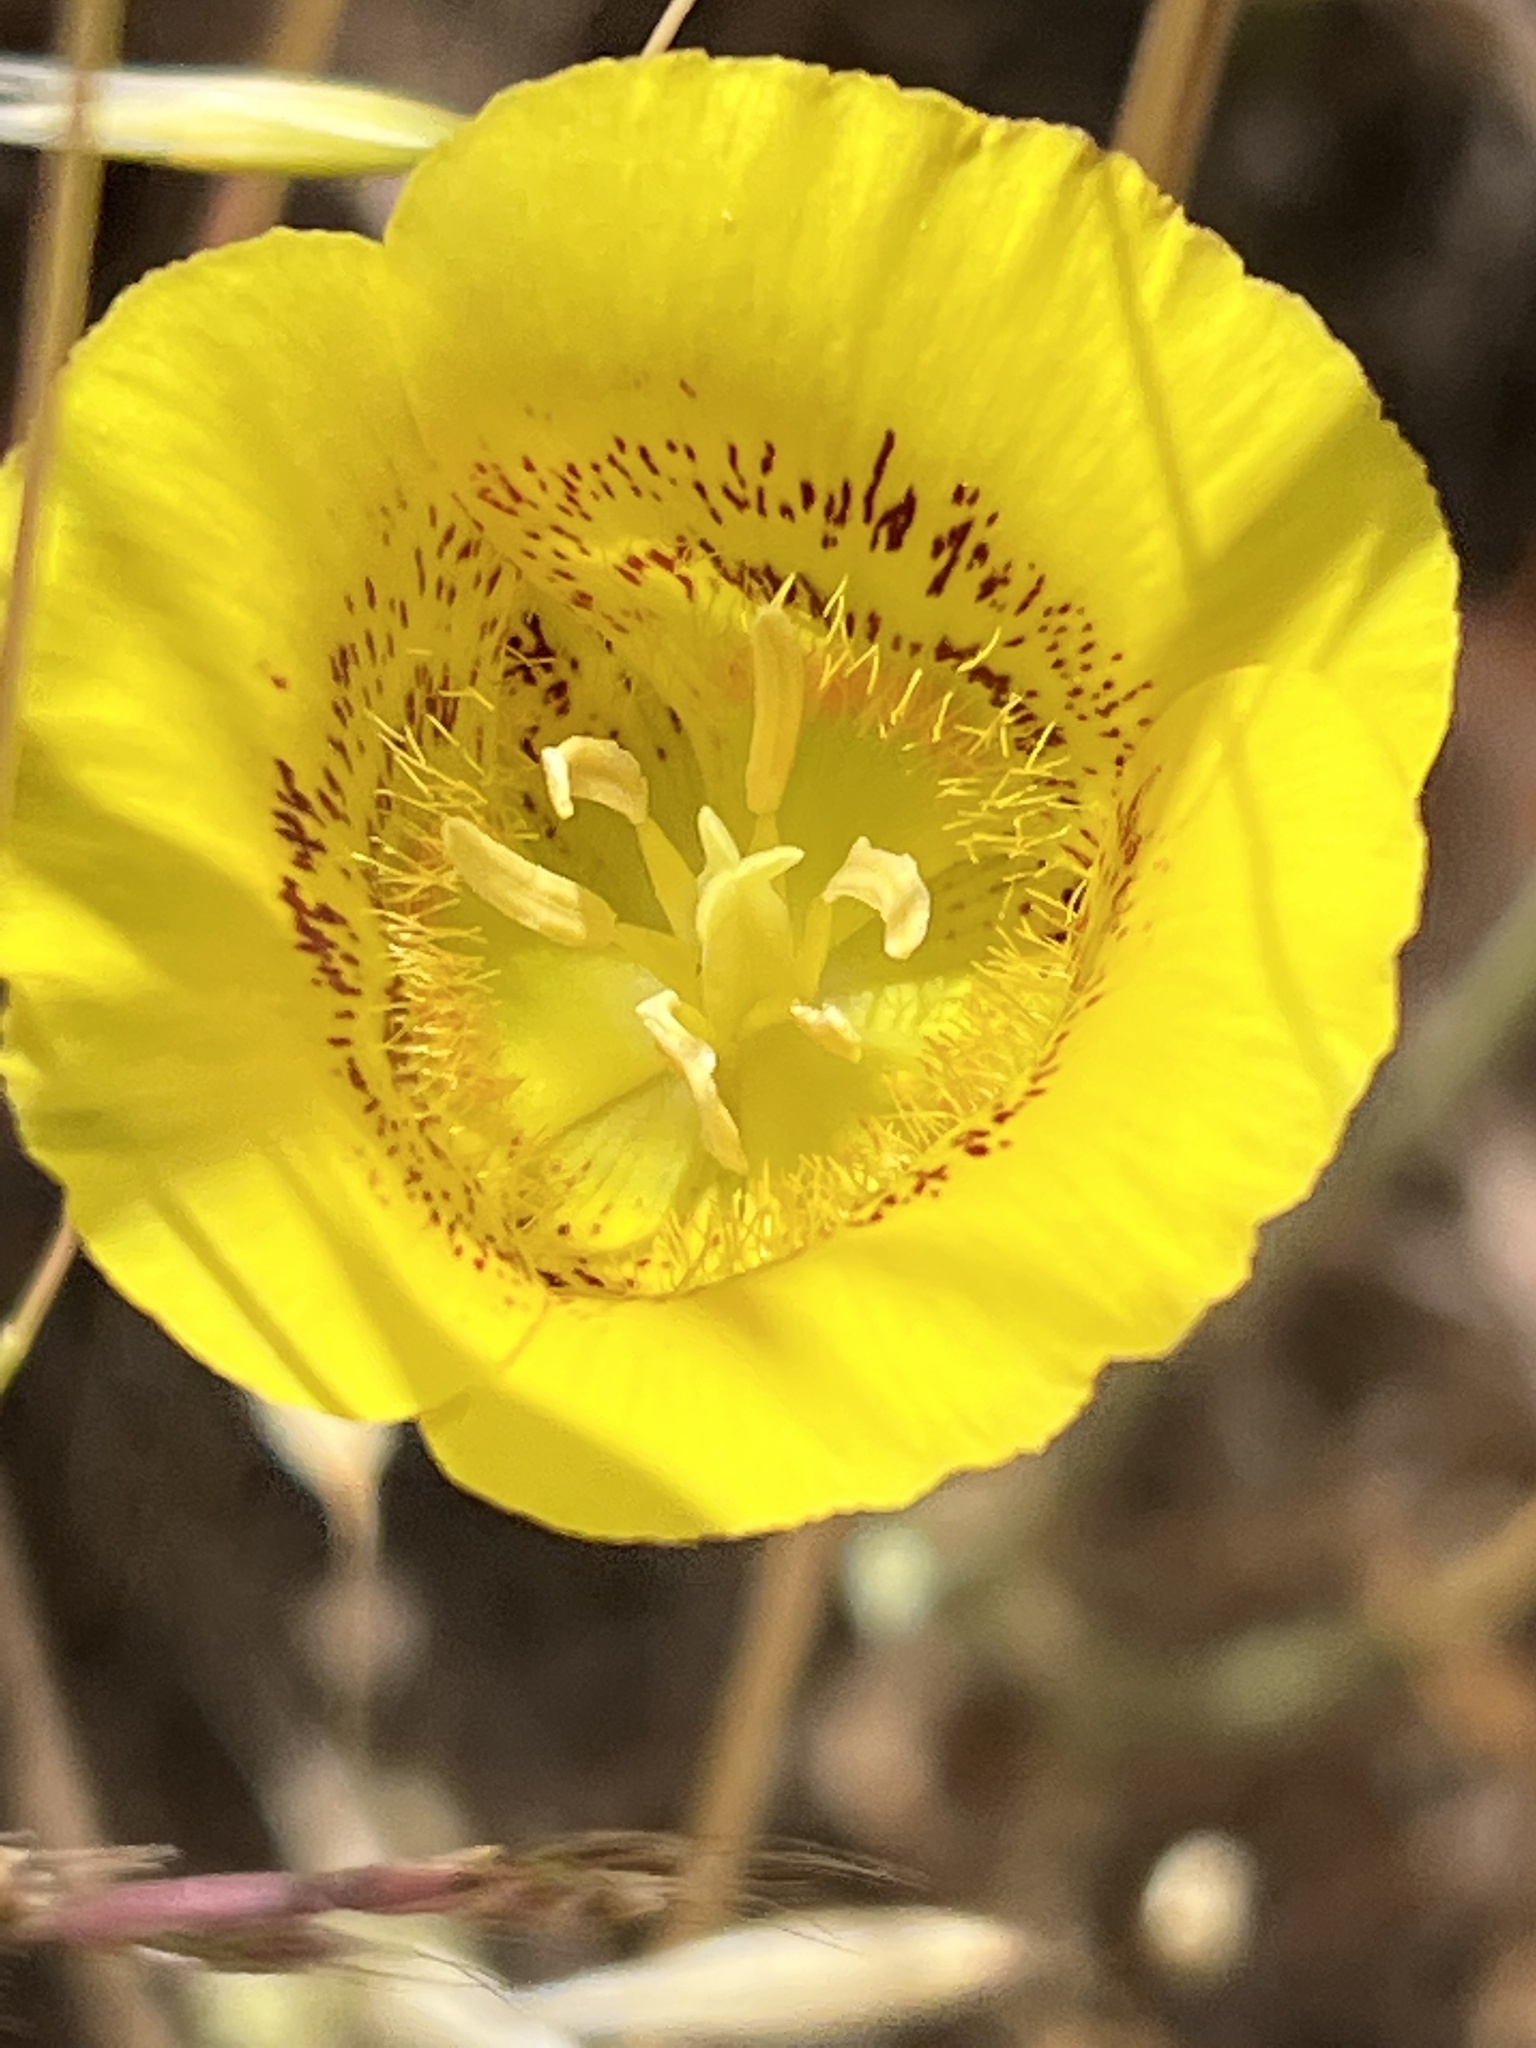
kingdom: Plantae
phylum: Tracheophyta
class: Liliopsida
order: Liliales
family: Liliaceae
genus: Calochortus
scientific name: Calochortus luteus
